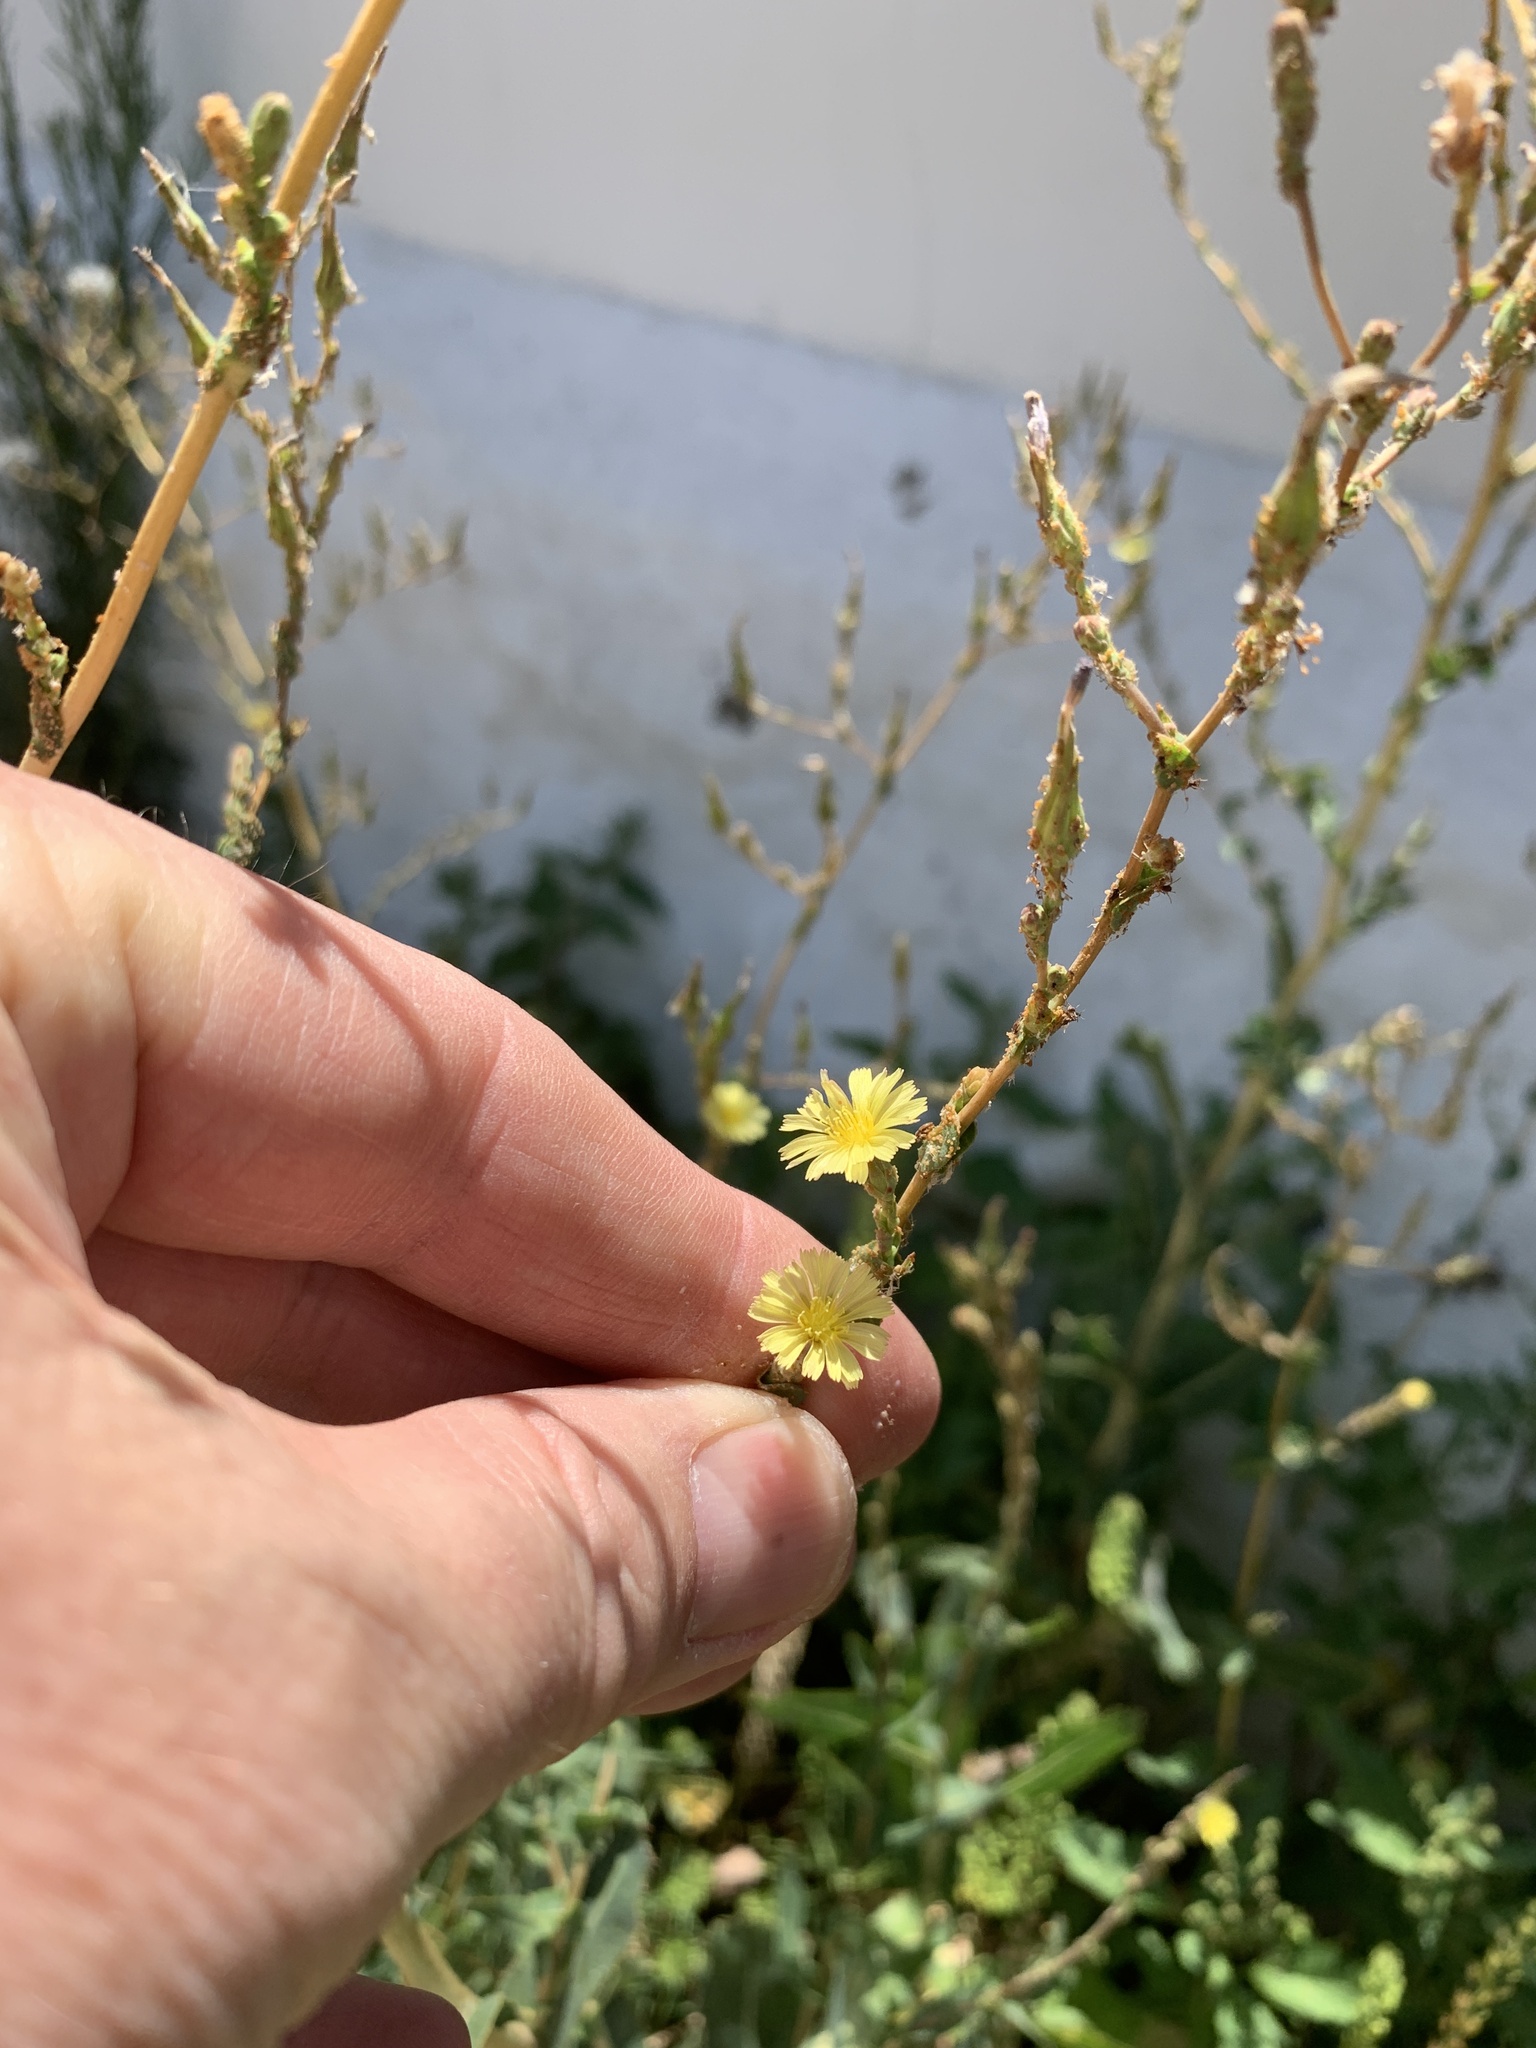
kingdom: Plantae
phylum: Tracheophyta
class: Magnoliopsida
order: Asterales
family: Asteraceae
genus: Lactuca
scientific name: Lactuca serriola
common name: Prickly lettuce
